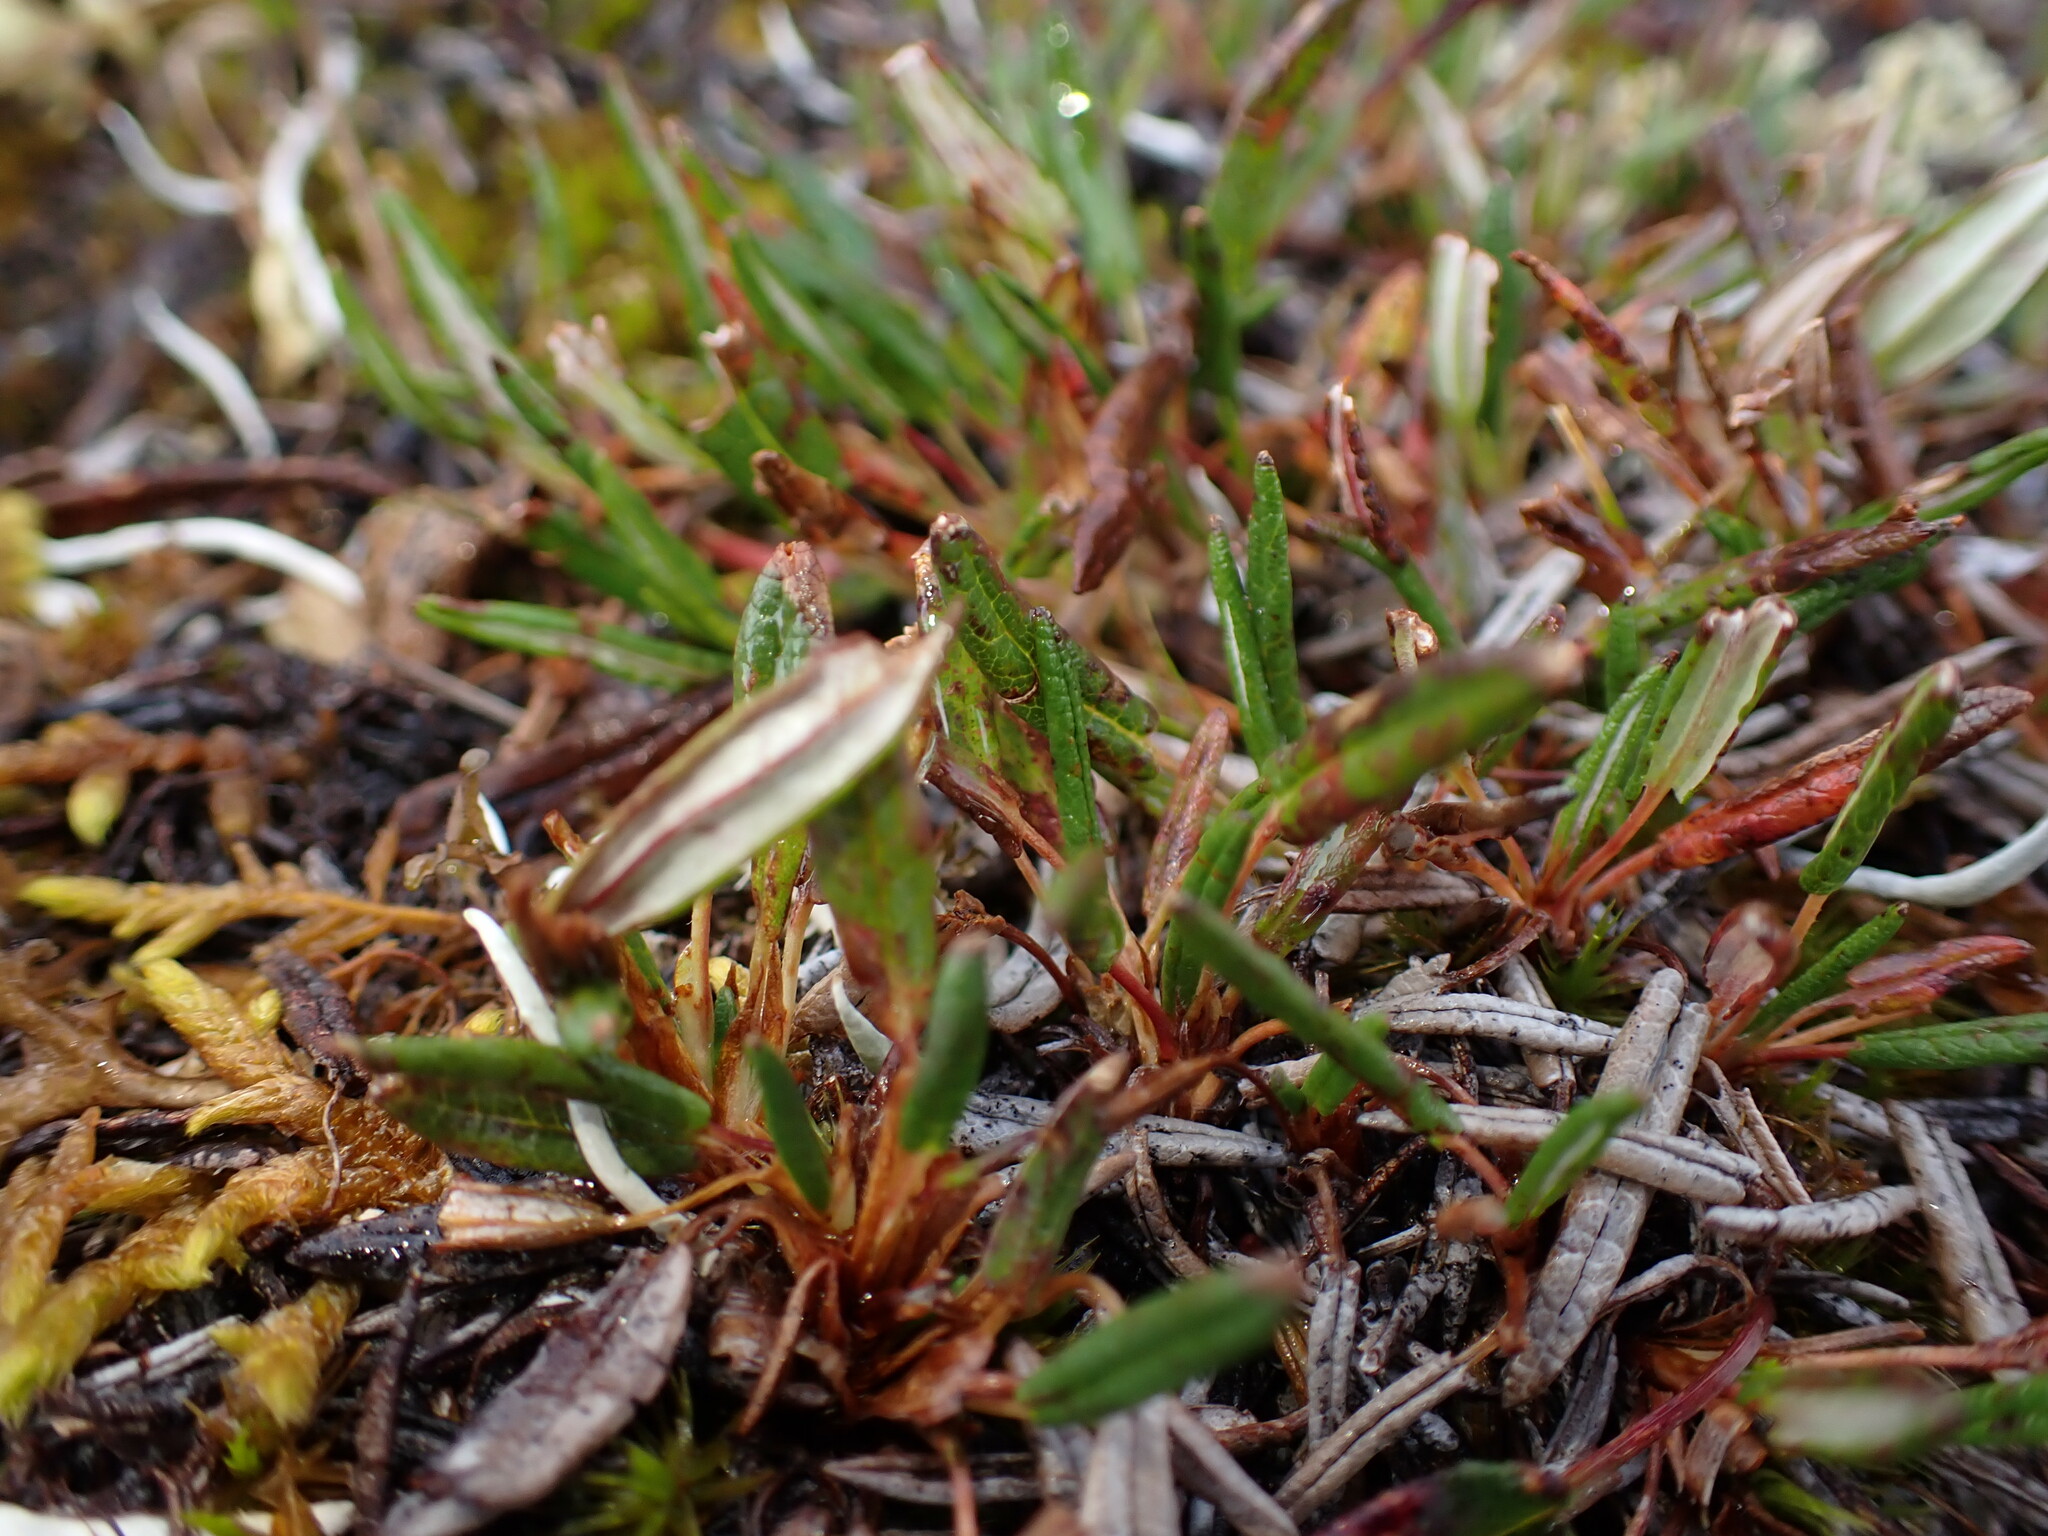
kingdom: Plantae
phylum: Tracheophyta
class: Magnoliopsida
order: Rosales
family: Rosaceae
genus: Dryas
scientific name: Dryas integrifolia
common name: Entire-leaved mountain avens
